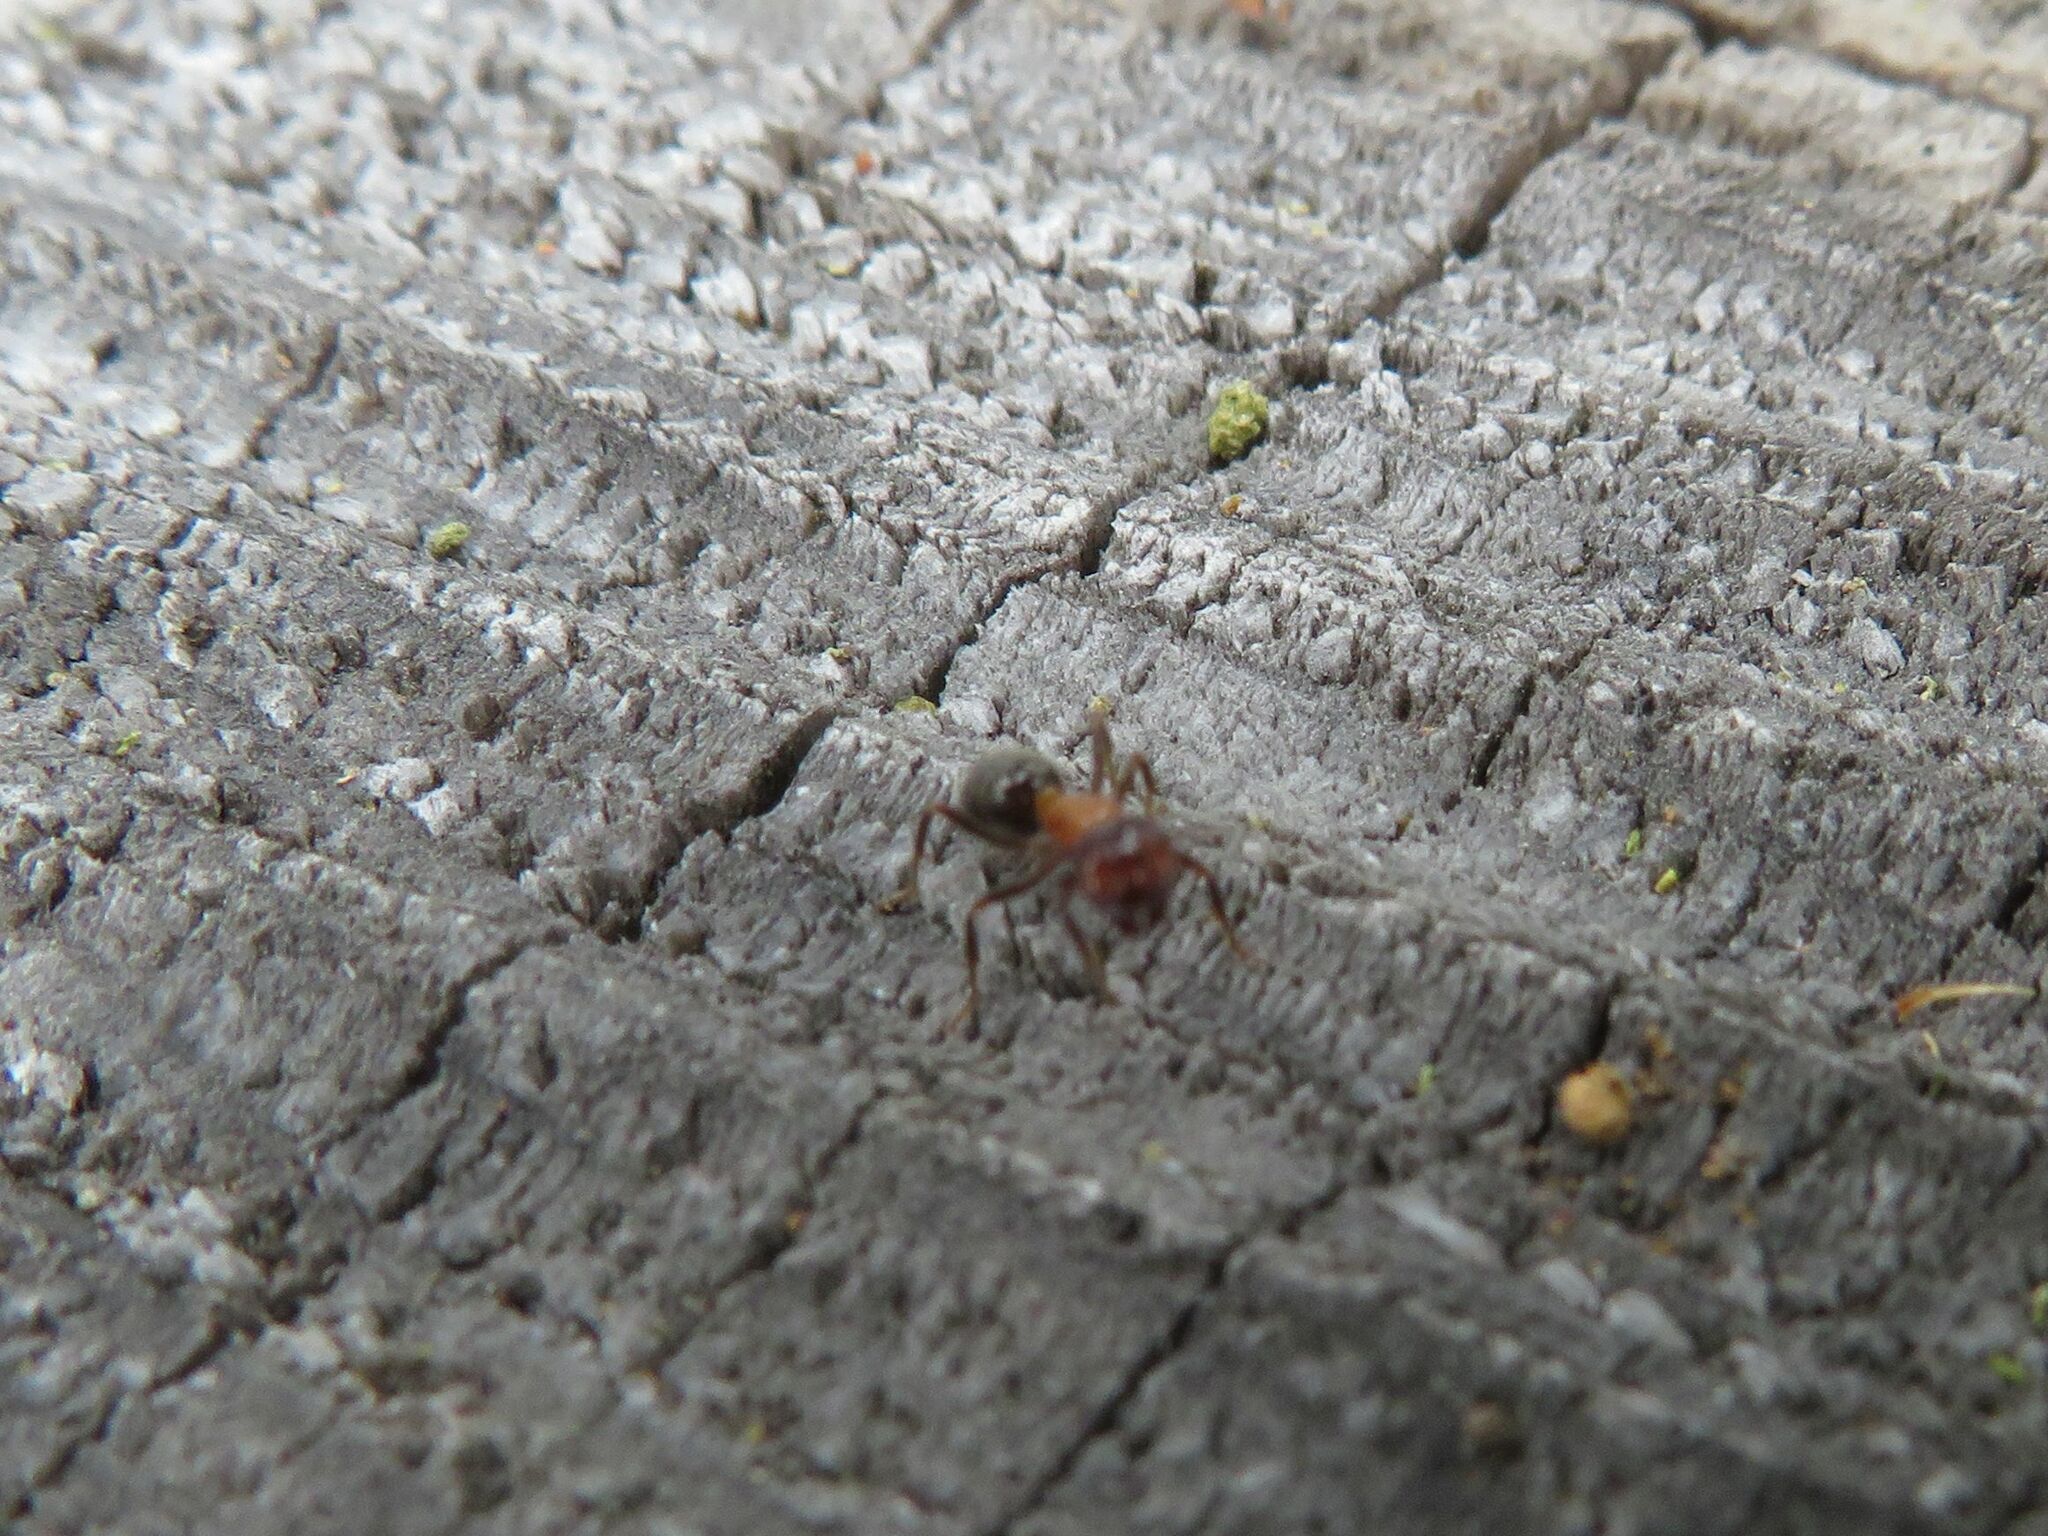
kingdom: Animalia
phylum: Arthropoda
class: Insecta
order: Hymenoptera
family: Formicidae
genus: Lasiophanes
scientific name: Lasiophanes
